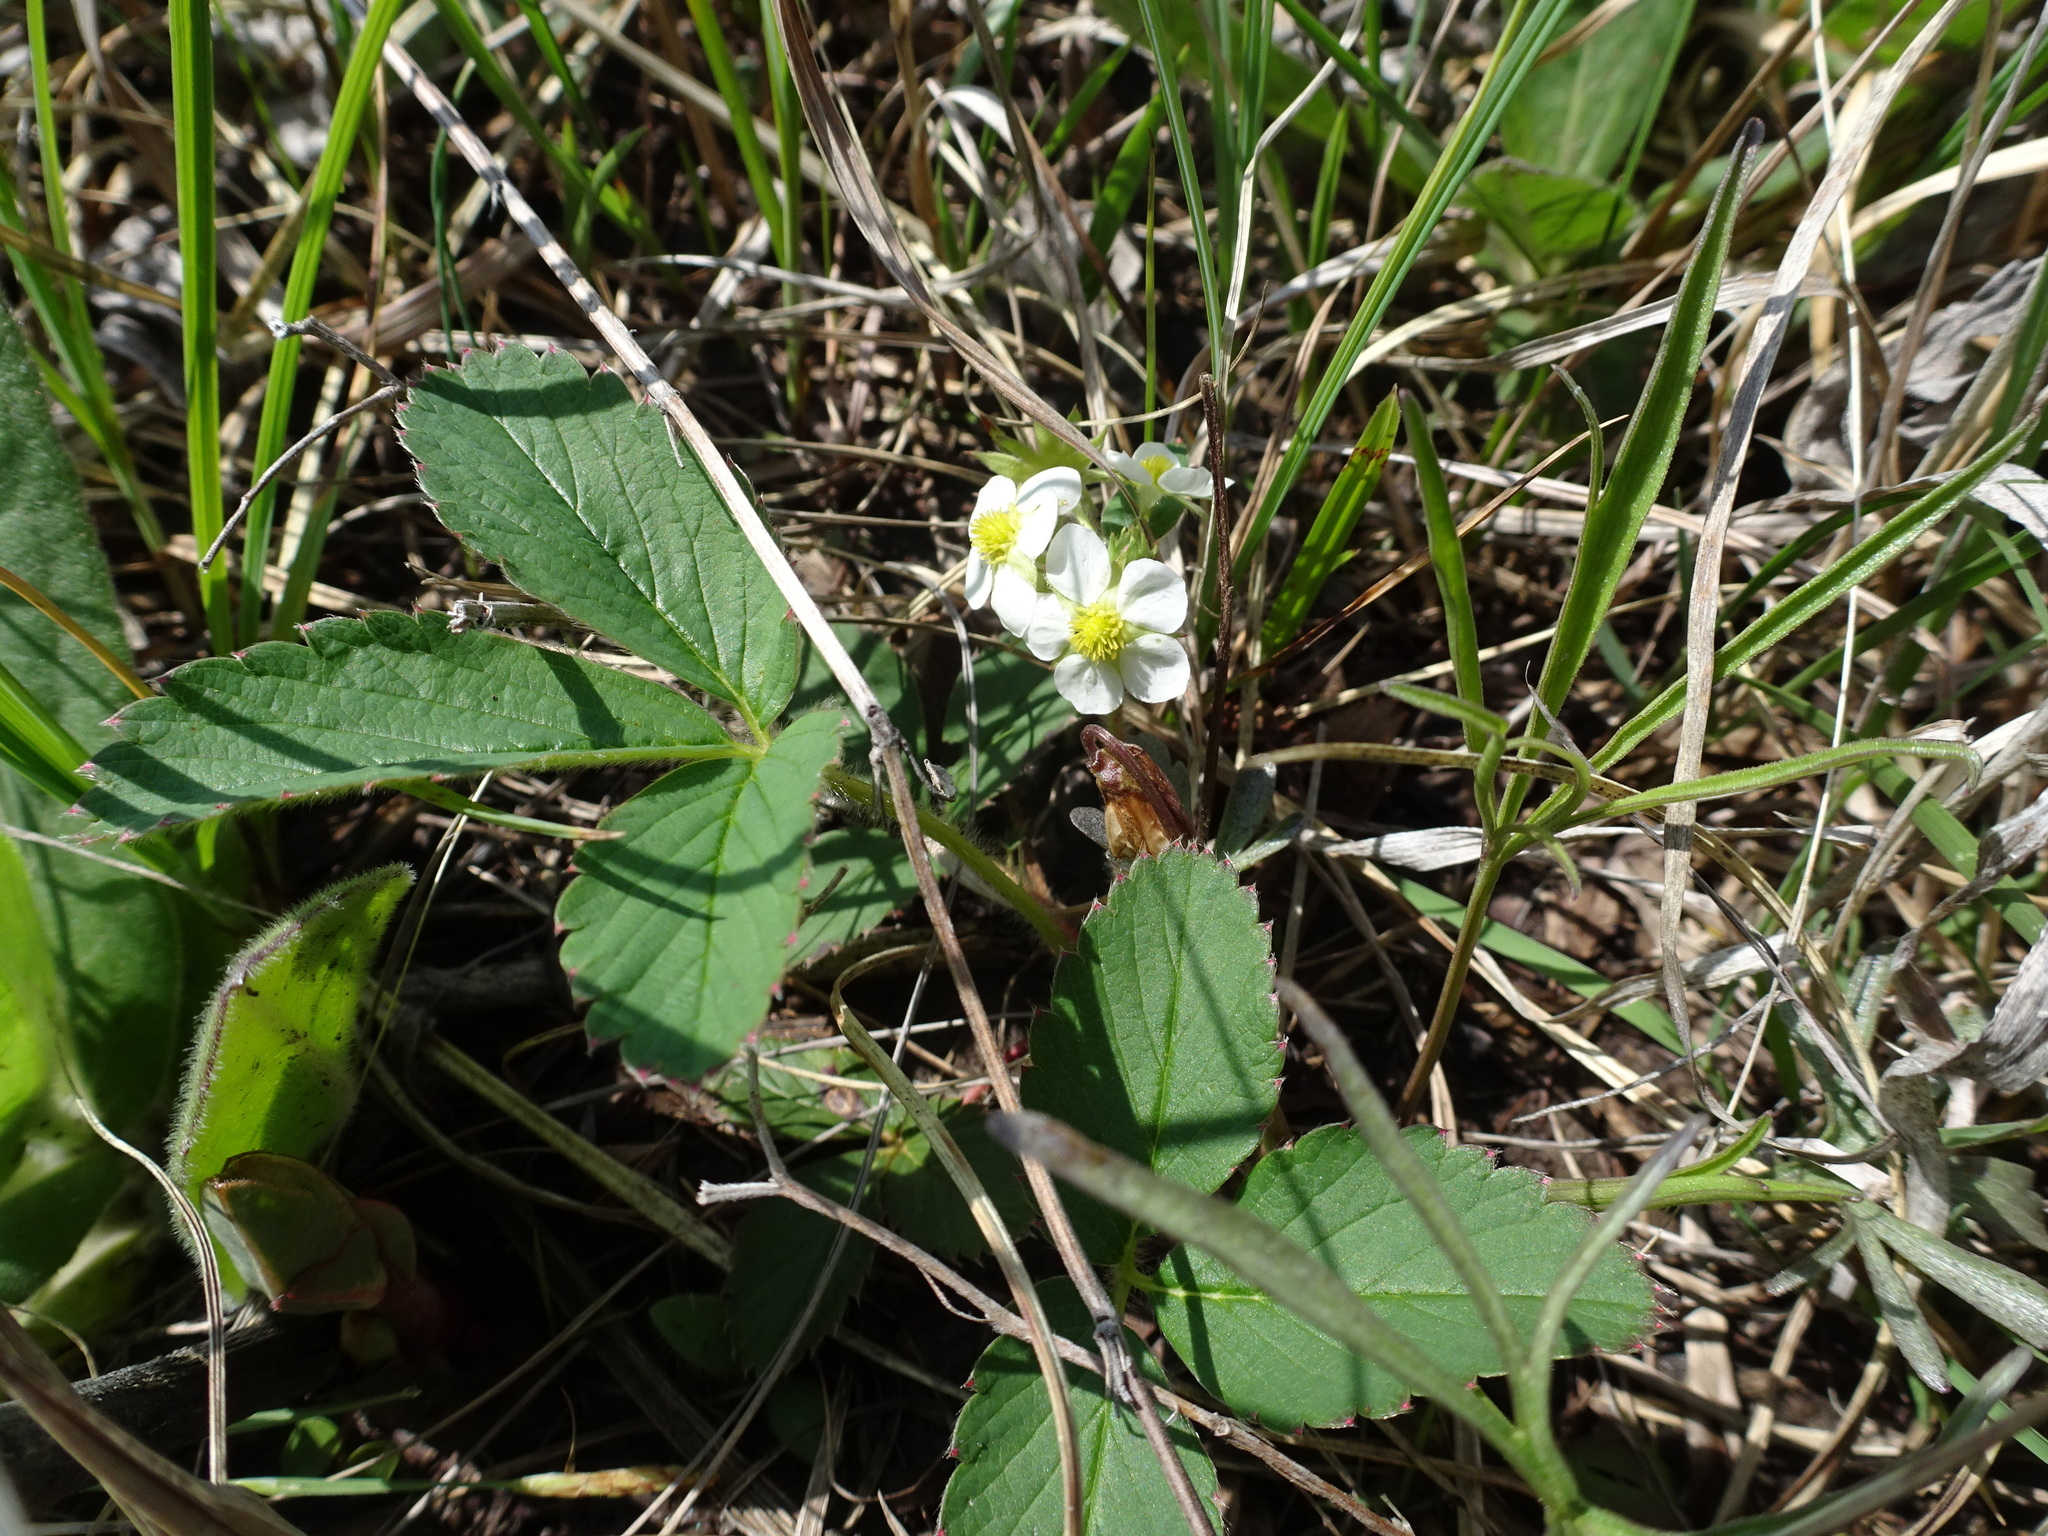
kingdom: Plantae
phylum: Tracheophyta
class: Magnoliopsida
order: Rosales
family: Rosaceae
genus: Fragaria
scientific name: Fragaria virginiana
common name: Thickleaved wild strawberry
